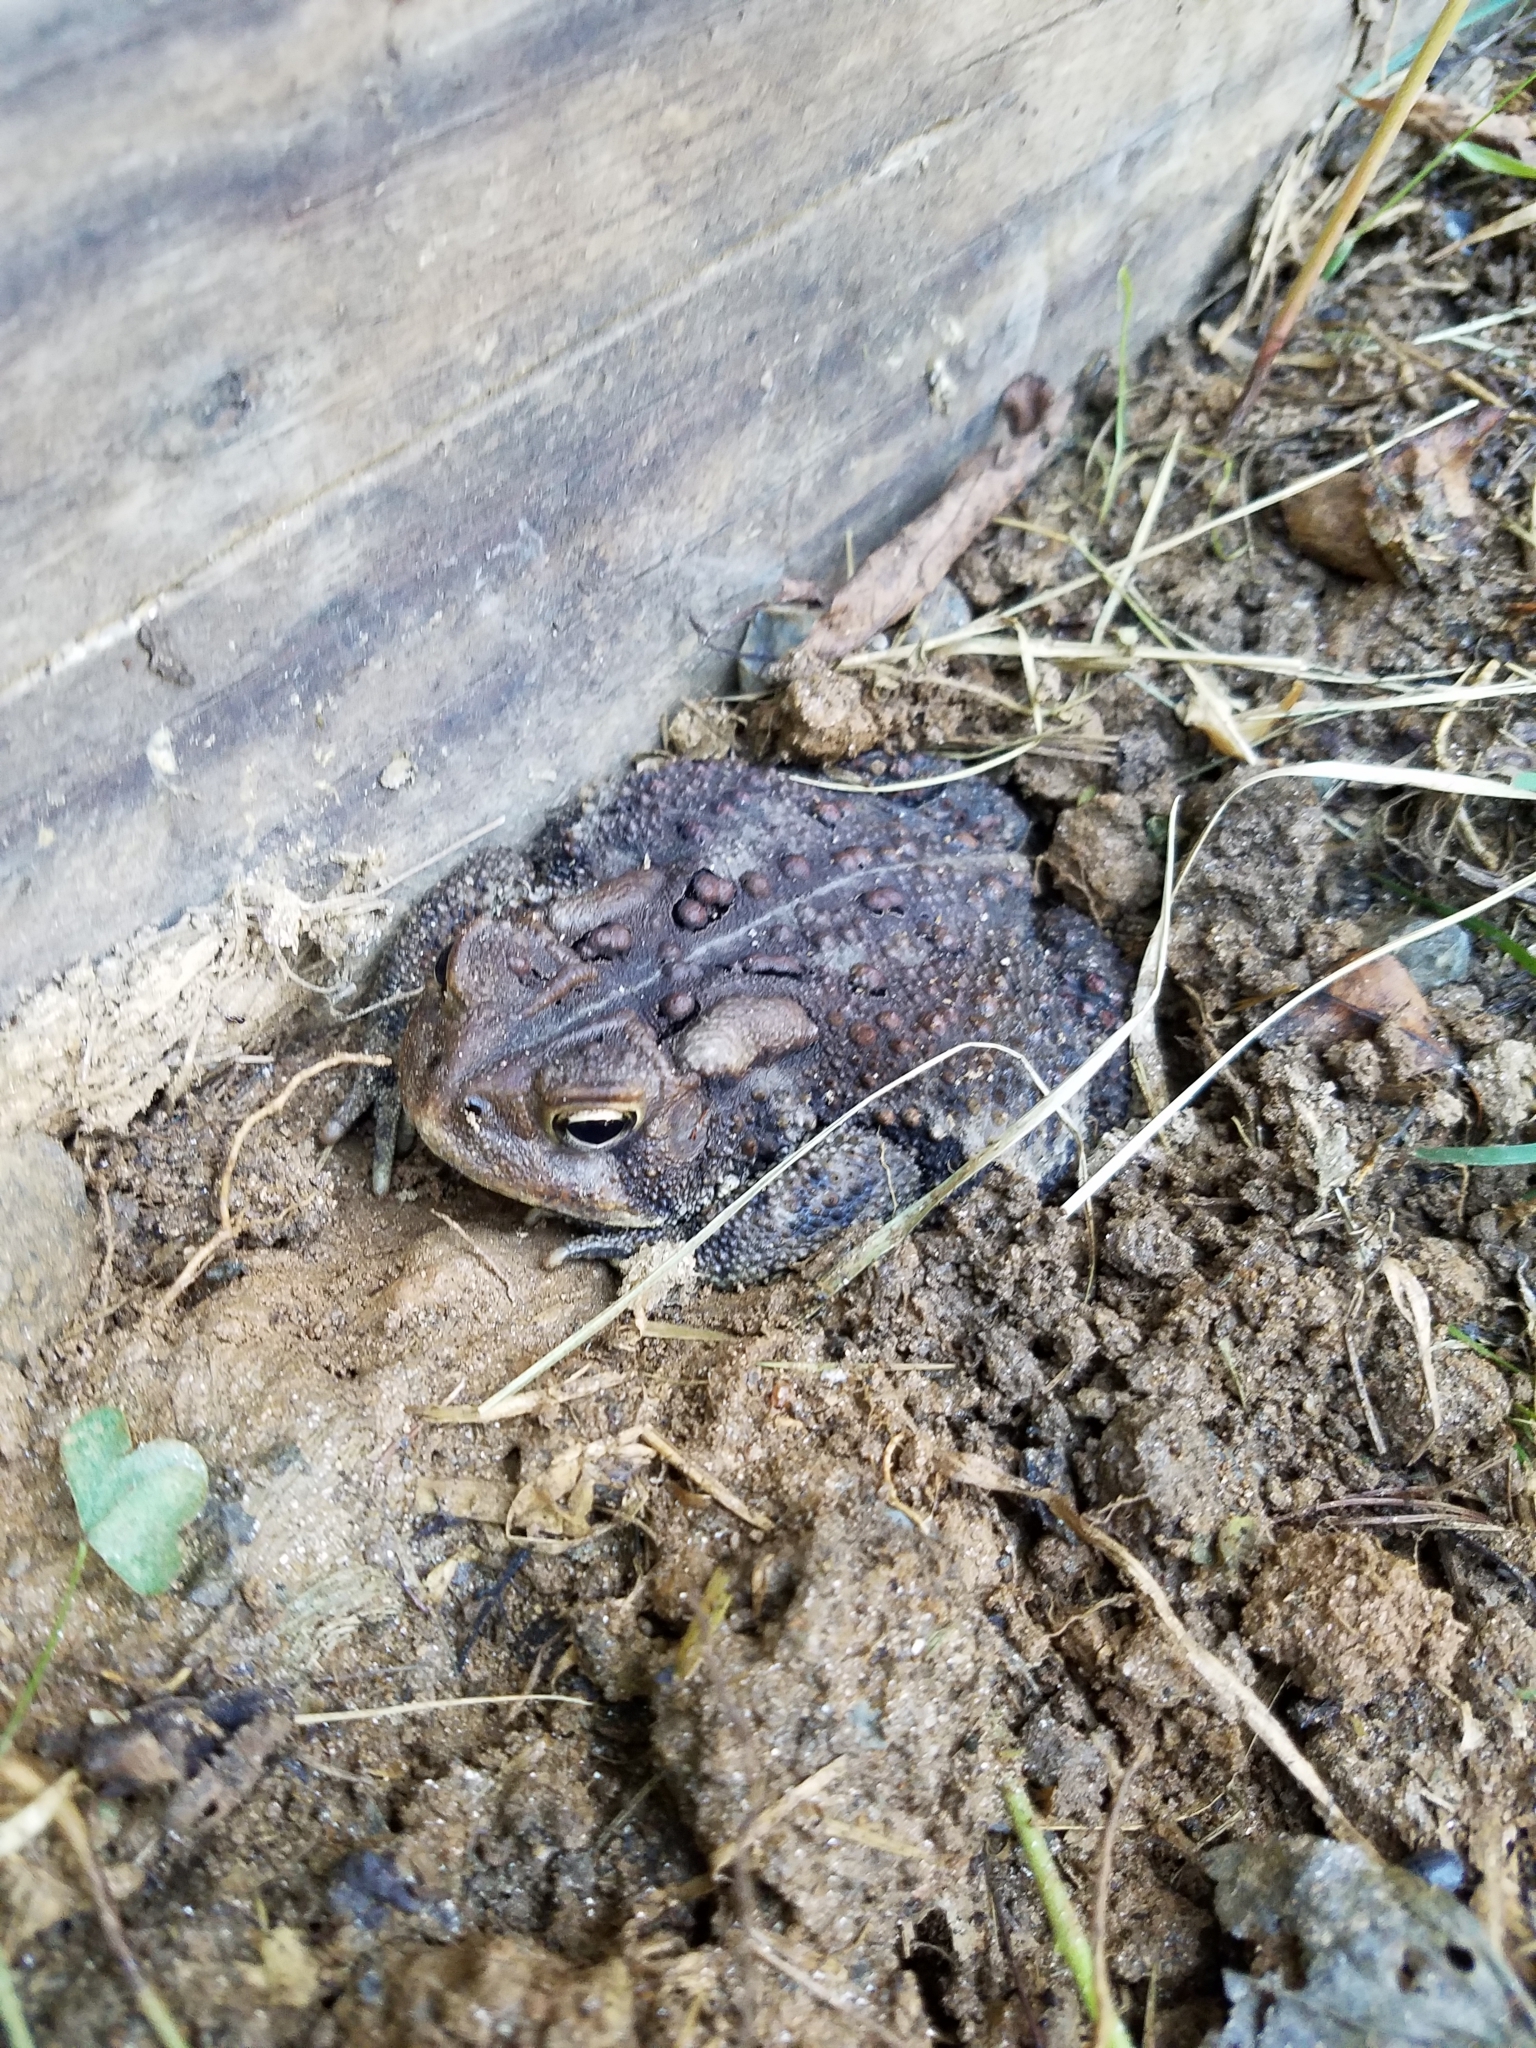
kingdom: Animalia
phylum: Chordata
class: Amphibia
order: Anura
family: Bufonidae
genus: Anaxyrus
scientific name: Anaxyrus americanus
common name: American toad
